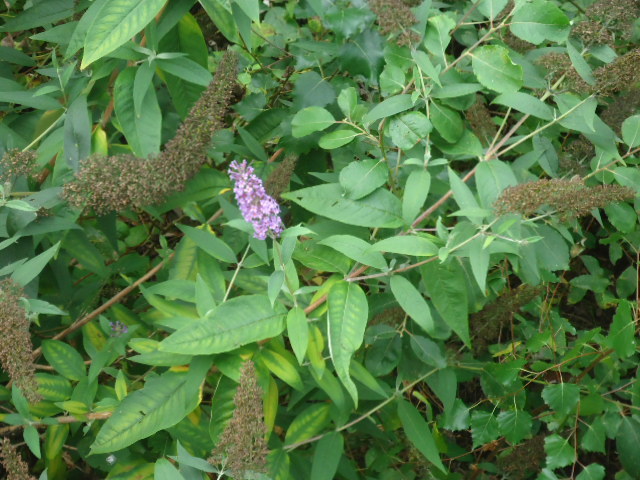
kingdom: Plantae
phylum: Tracheophyta
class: Magnoliopsida
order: Lamiales
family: Scrophulariaceae
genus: Buddleja
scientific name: Buddleja davidii
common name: Butterfly-bush
